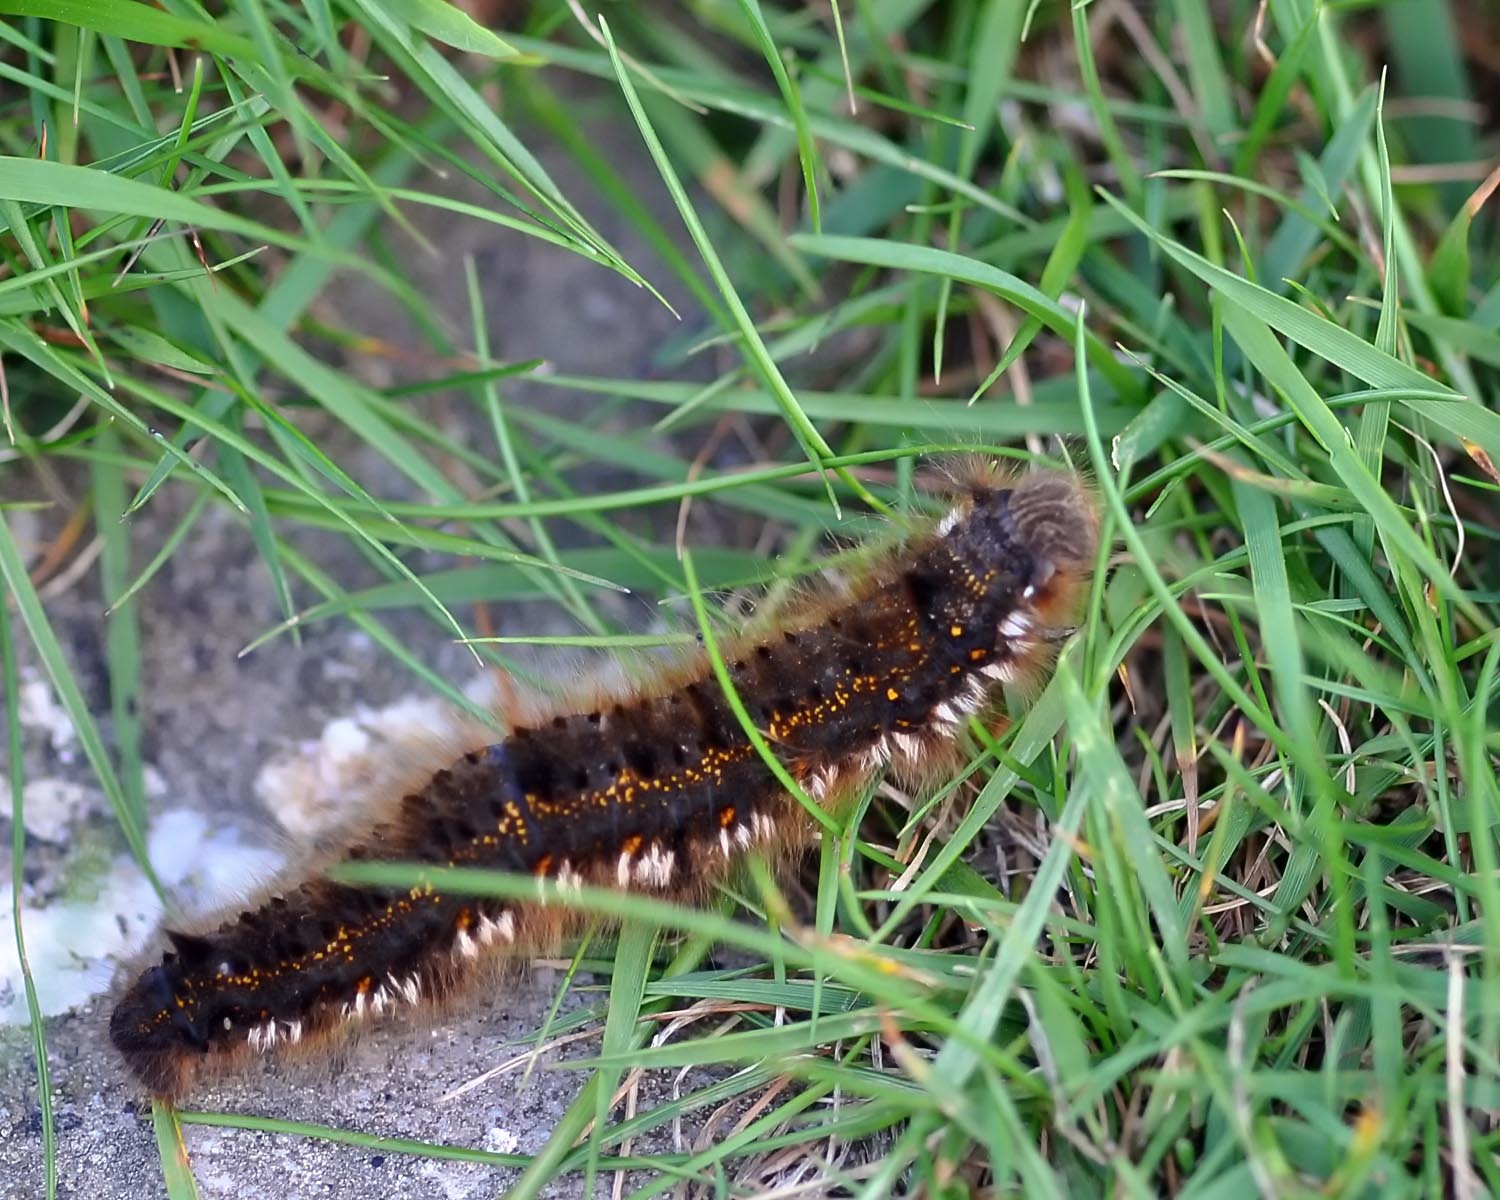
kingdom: Animalia
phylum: Arthropoda
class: Insecta
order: Lepidoptera
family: Lasiocampidae
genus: Euthrix
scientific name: Euthrix potatoria
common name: Drinker
